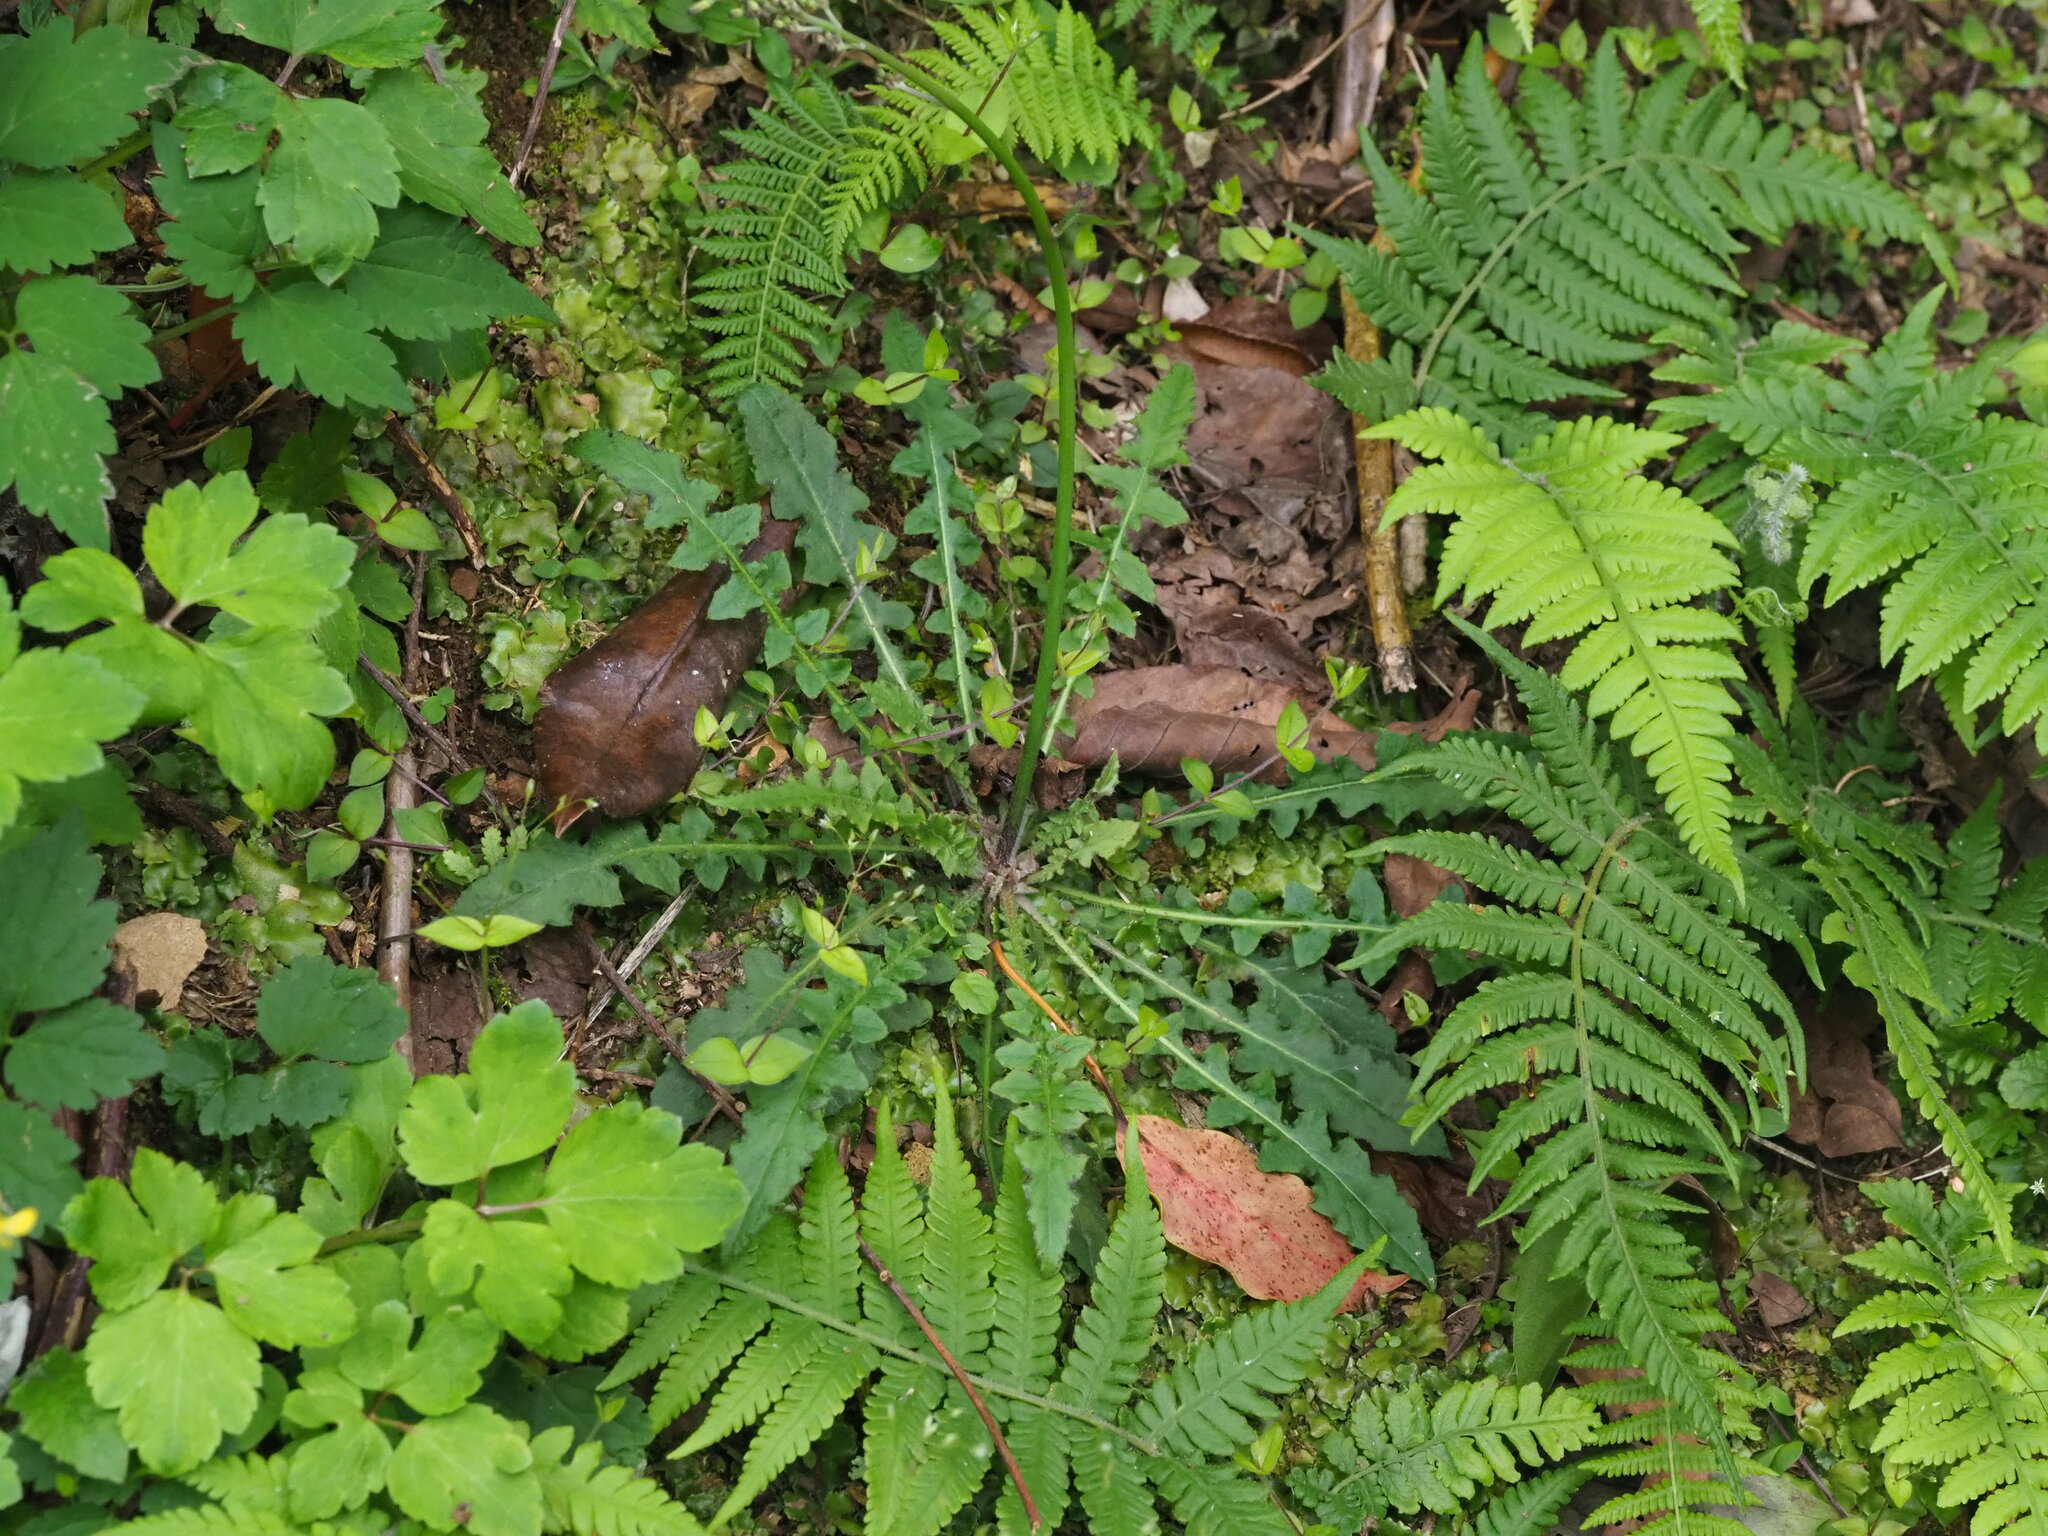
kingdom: Plantae
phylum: Tracheophyta
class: Magnoliopsida
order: Asterales
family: Asteraceae
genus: Youngia
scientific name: Youngia japonica
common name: Oriental false hawksbeard
